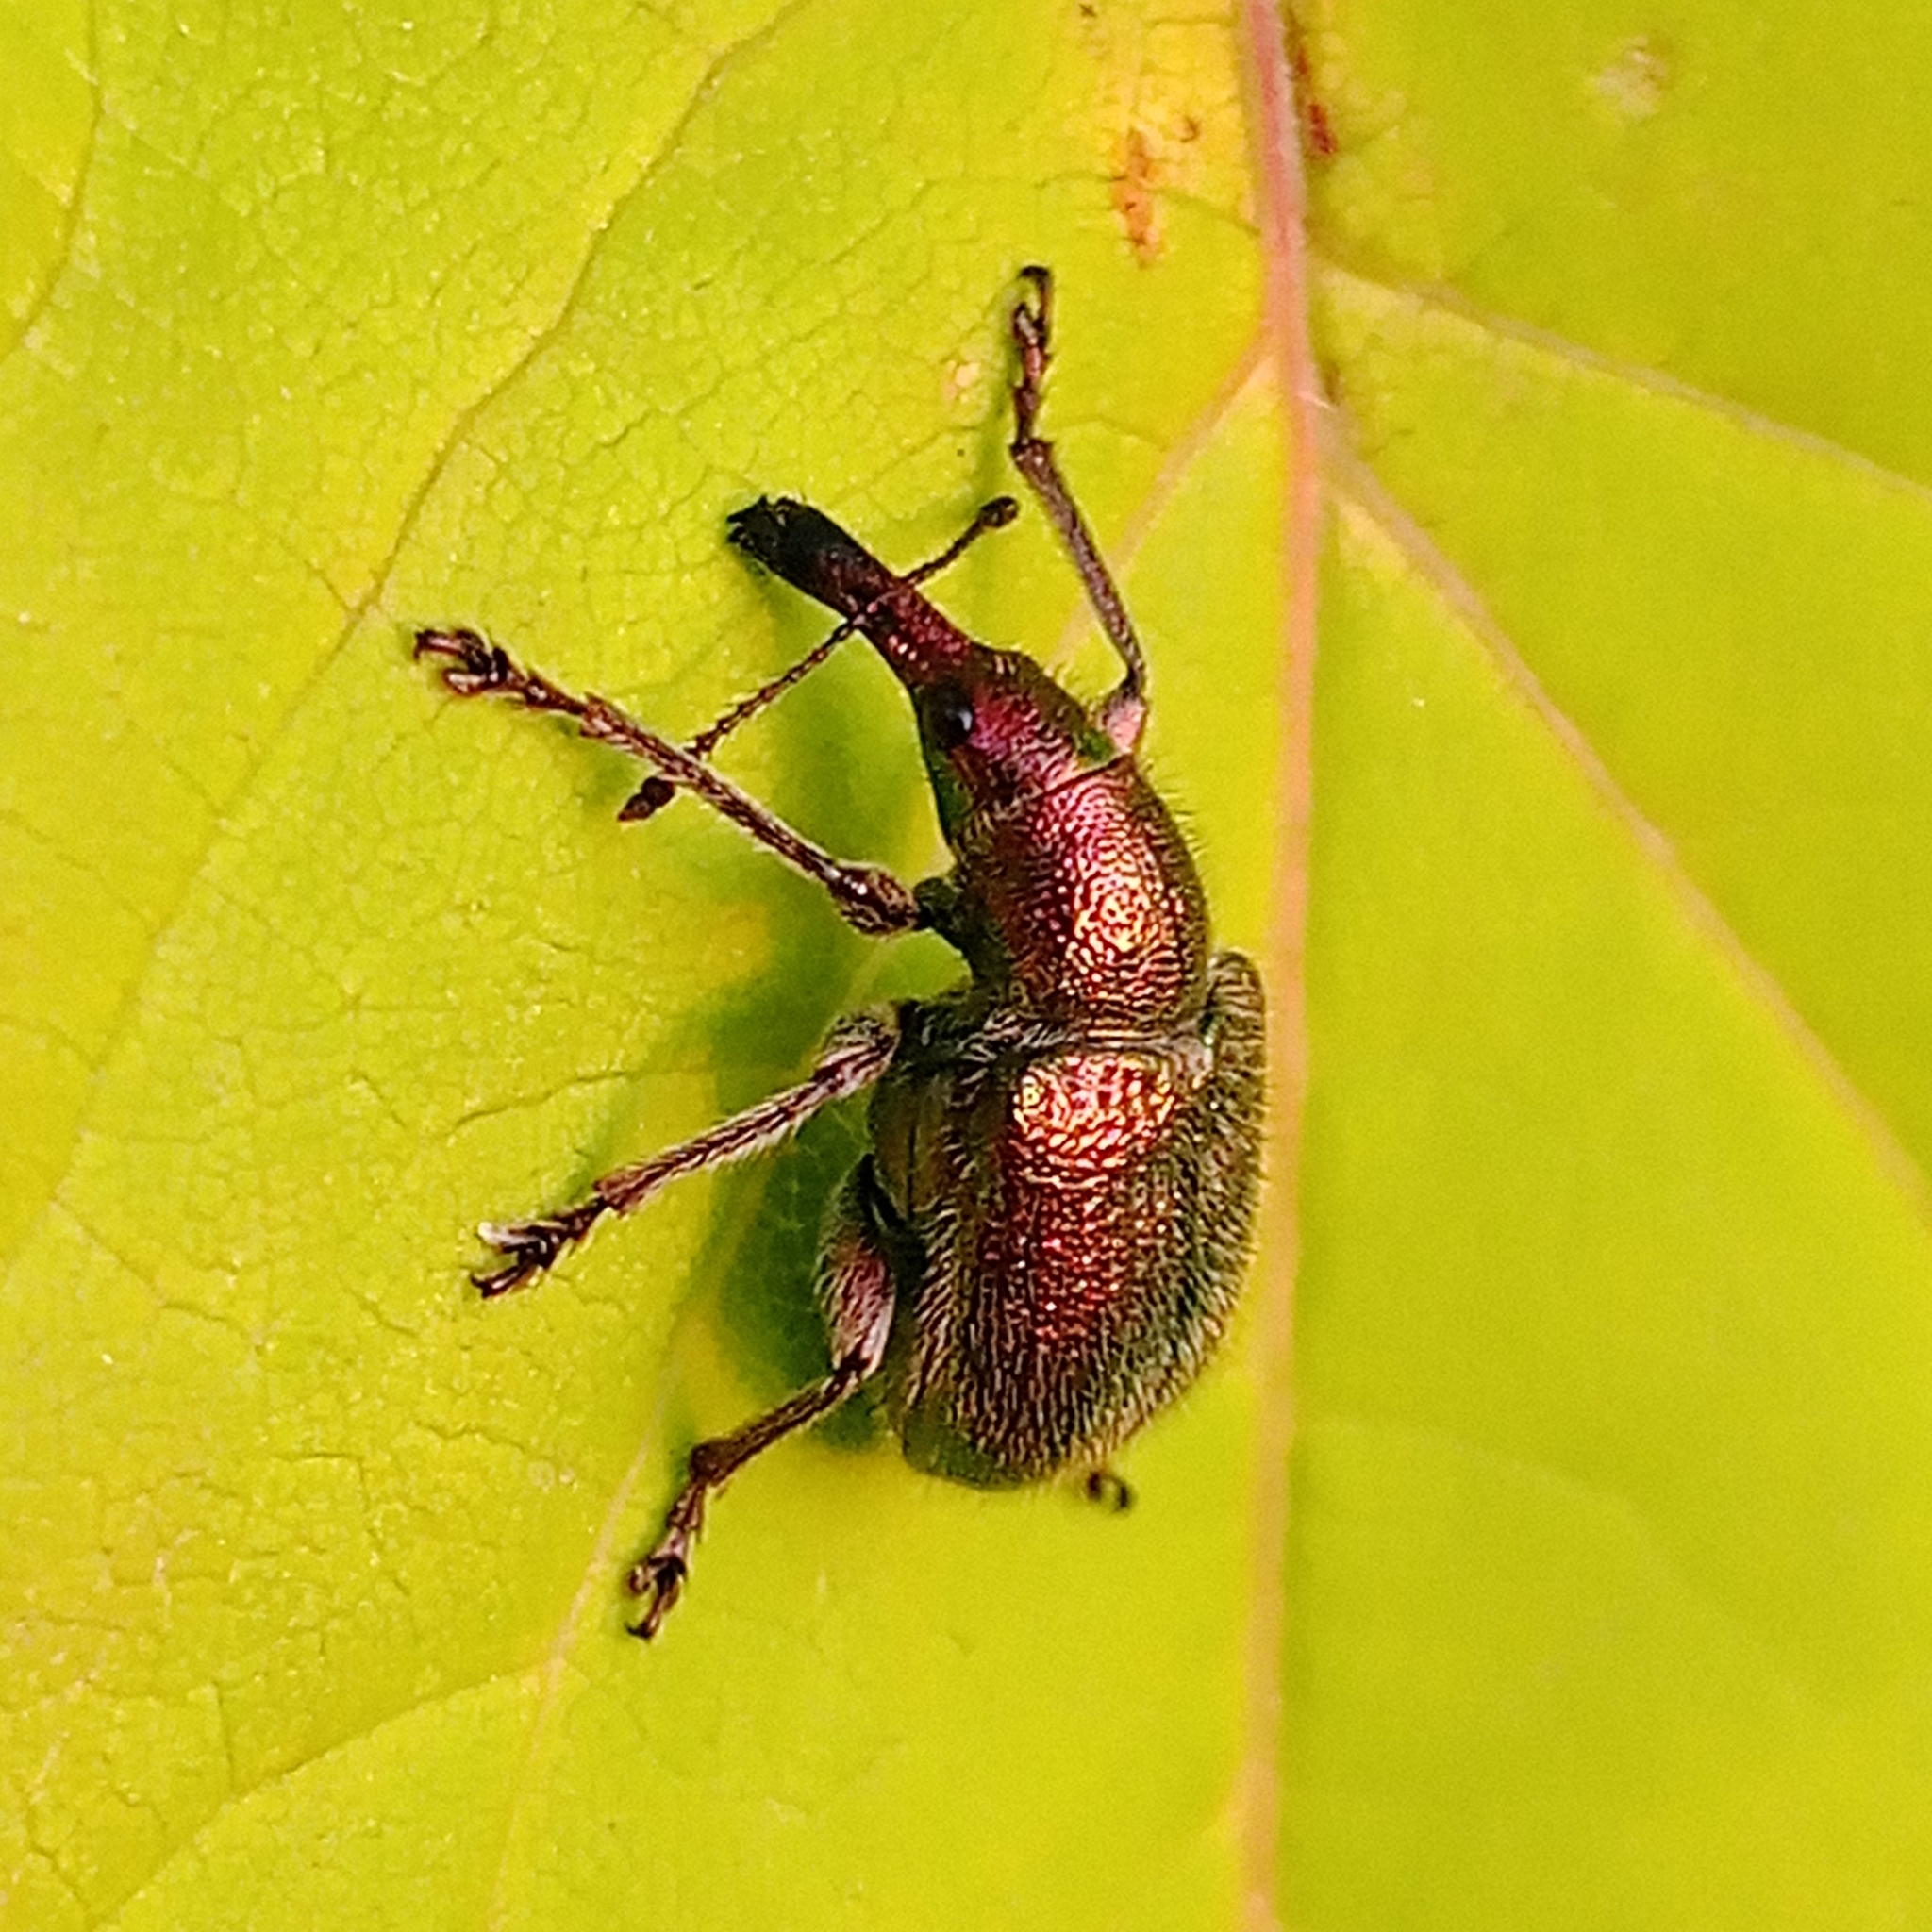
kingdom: Animalia
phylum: Arthropoda
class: Insecta
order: Coleoptera
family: Attelabidae
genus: Rhynchites
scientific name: Rhynchites auratus
